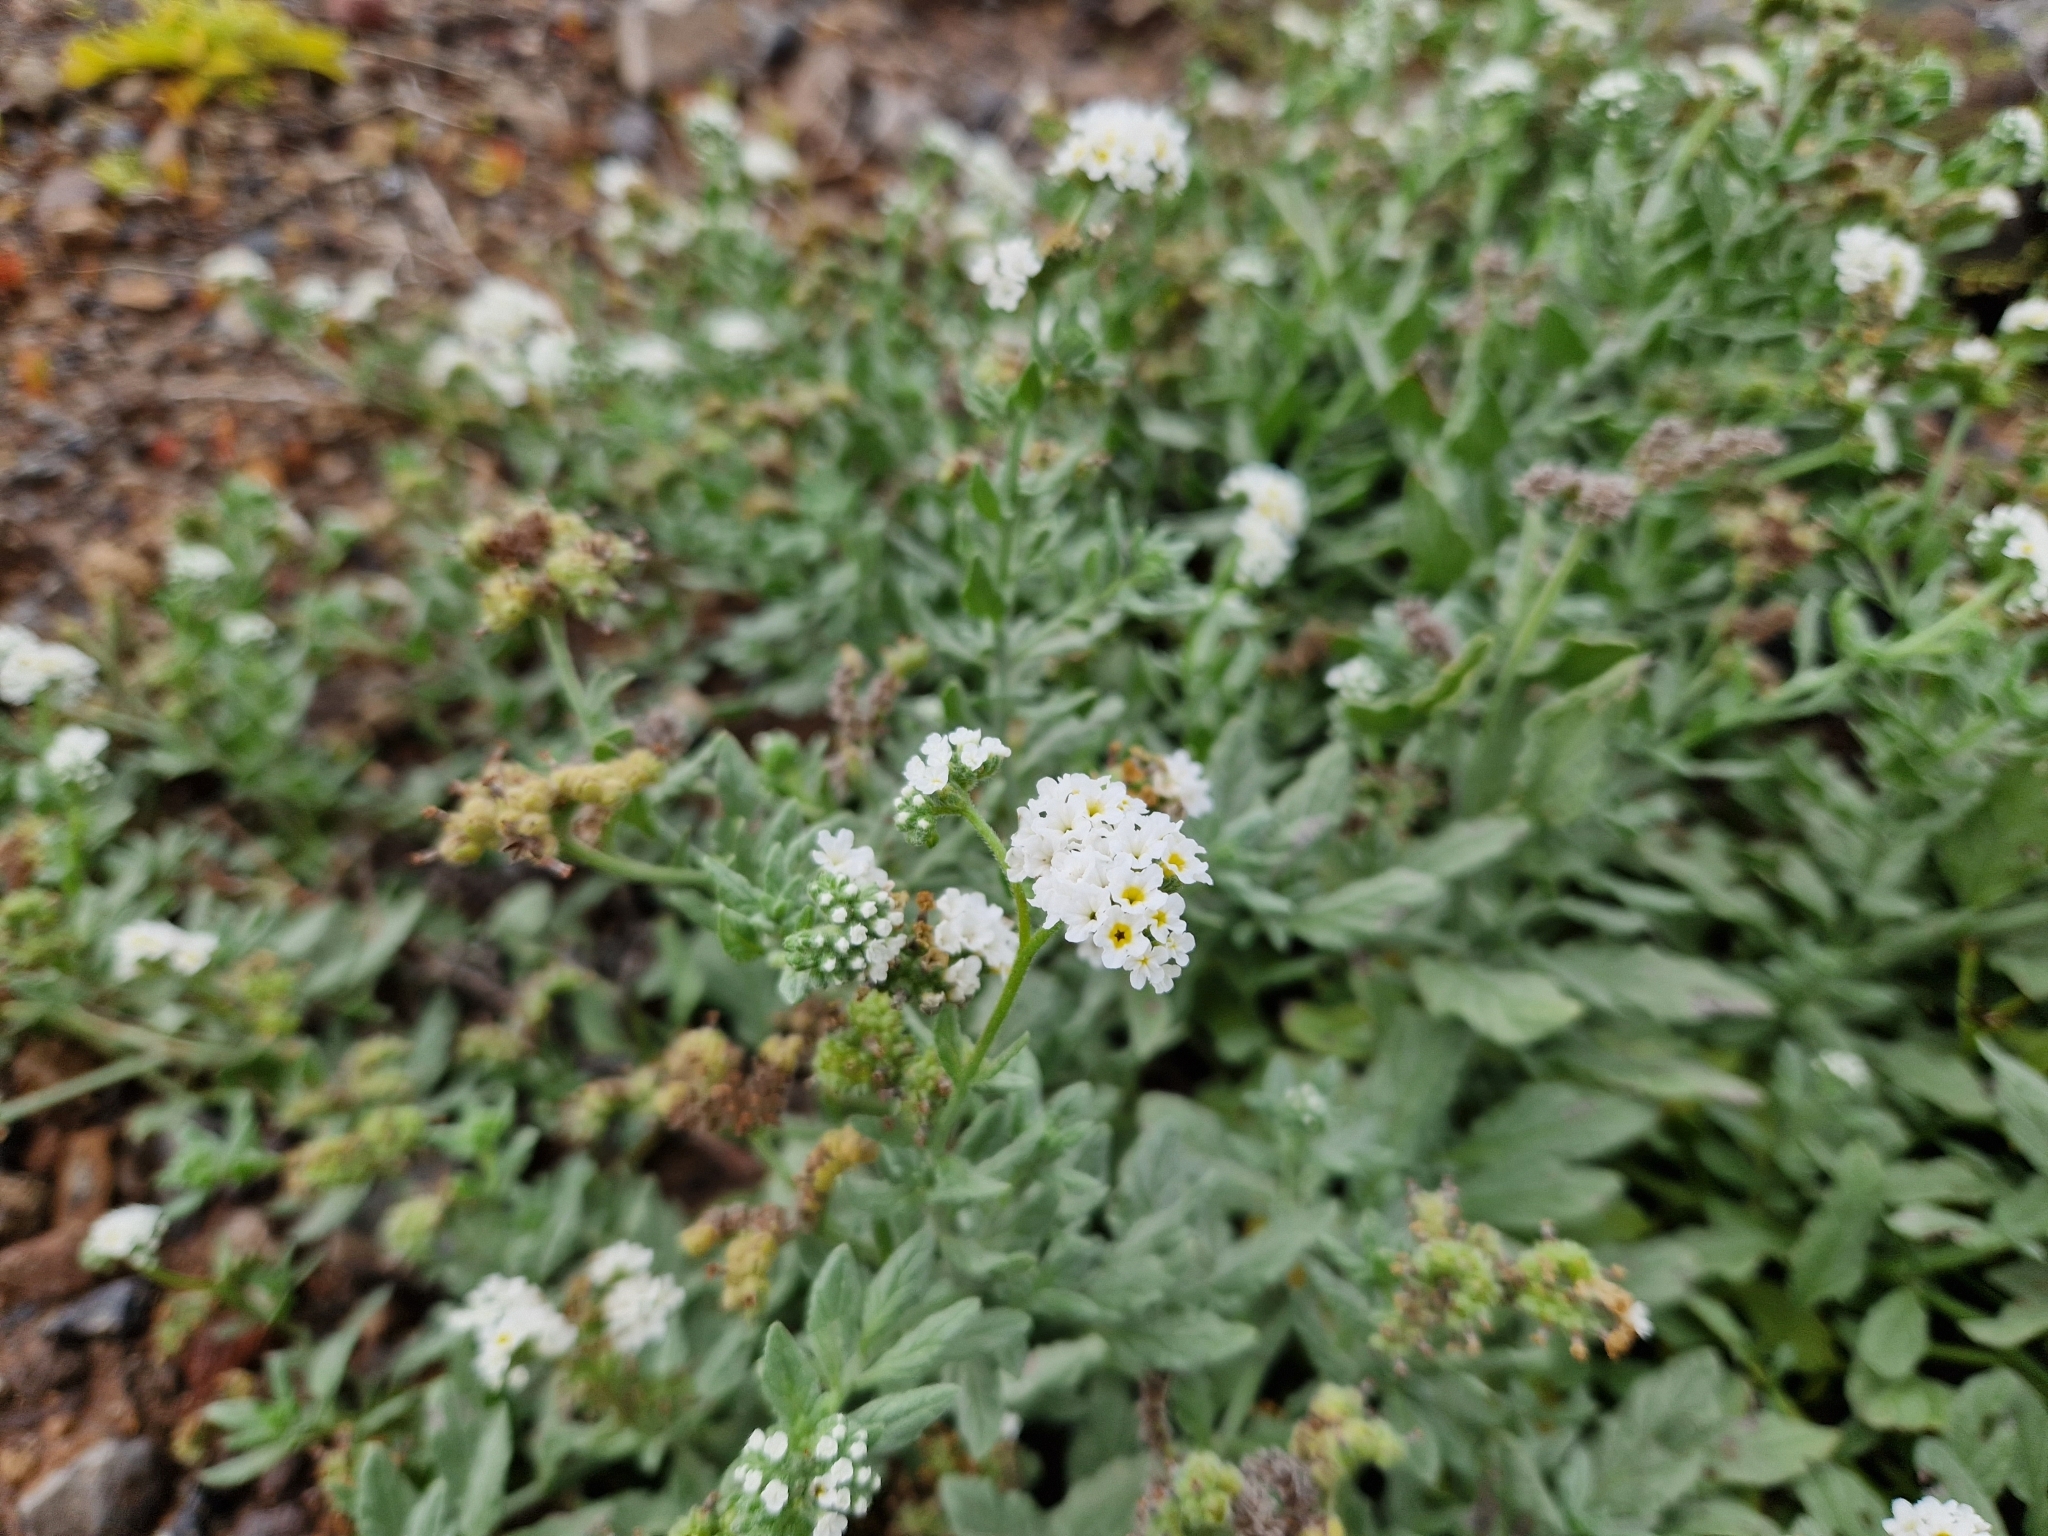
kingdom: Plantae
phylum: Tracheophyta
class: Magnoliopsida
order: Boraginales
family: Heliotropiaceae
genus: Heliotropium
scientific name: Heliotropium ramosissimum
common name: Wavy heliotrope
